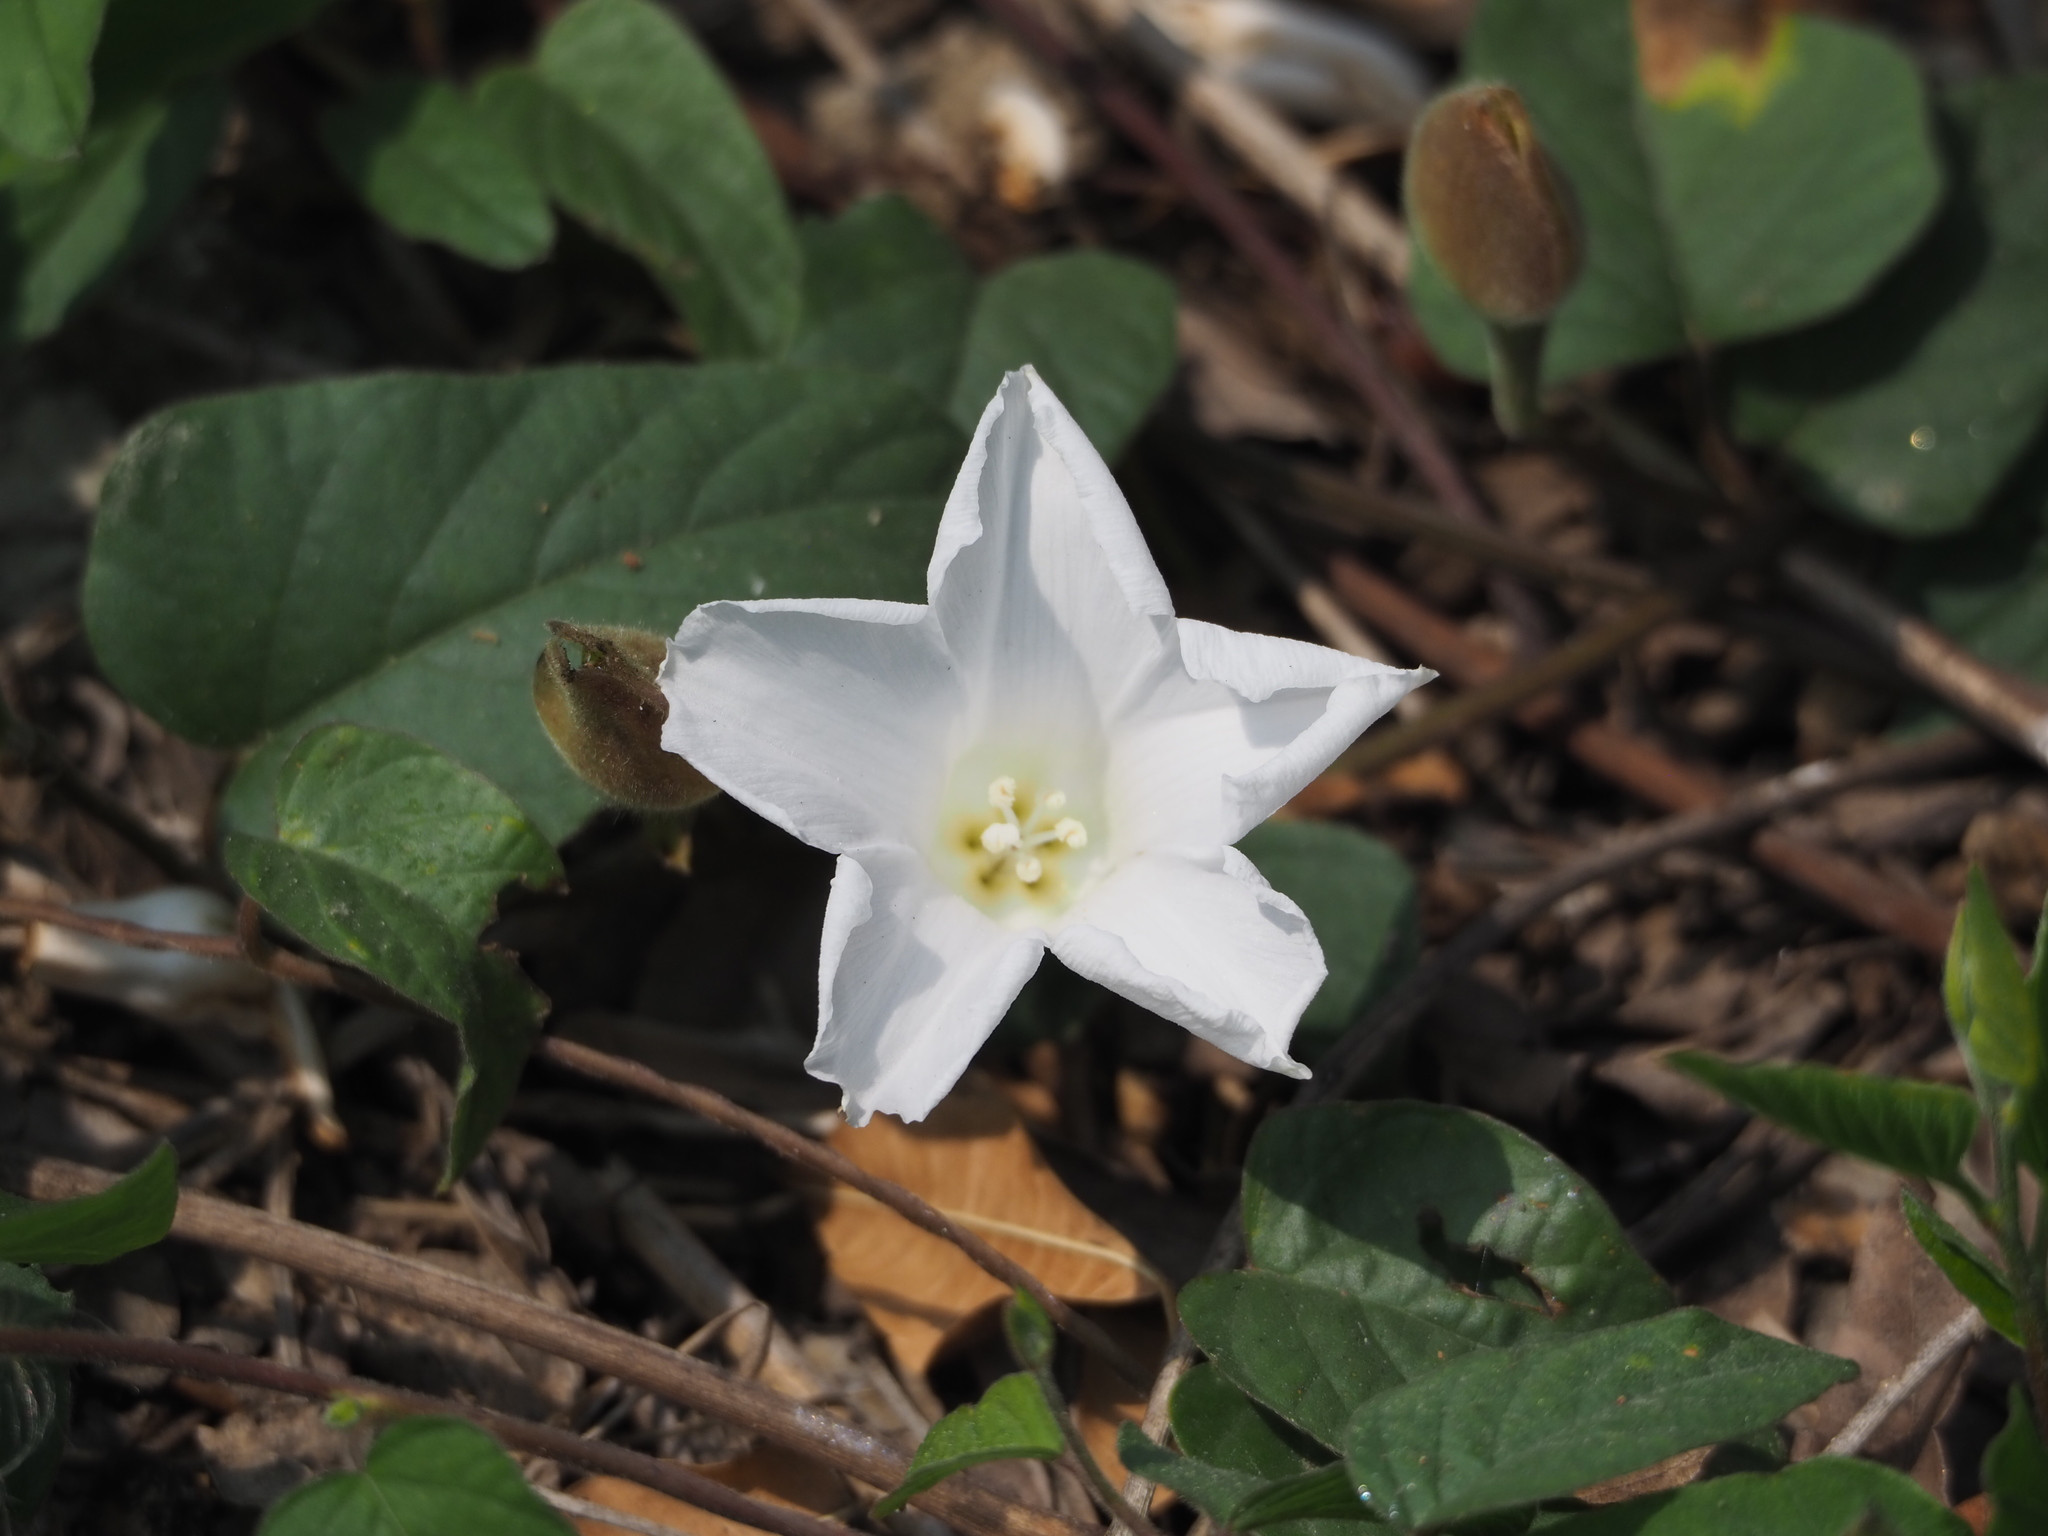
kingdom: Plantae
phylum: Tracheophyta
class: Magnoliopsida
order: Solanales
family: Convolvulaceae
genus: Operculina
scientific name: Operculina turpethum
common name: Transparent wood-rose
